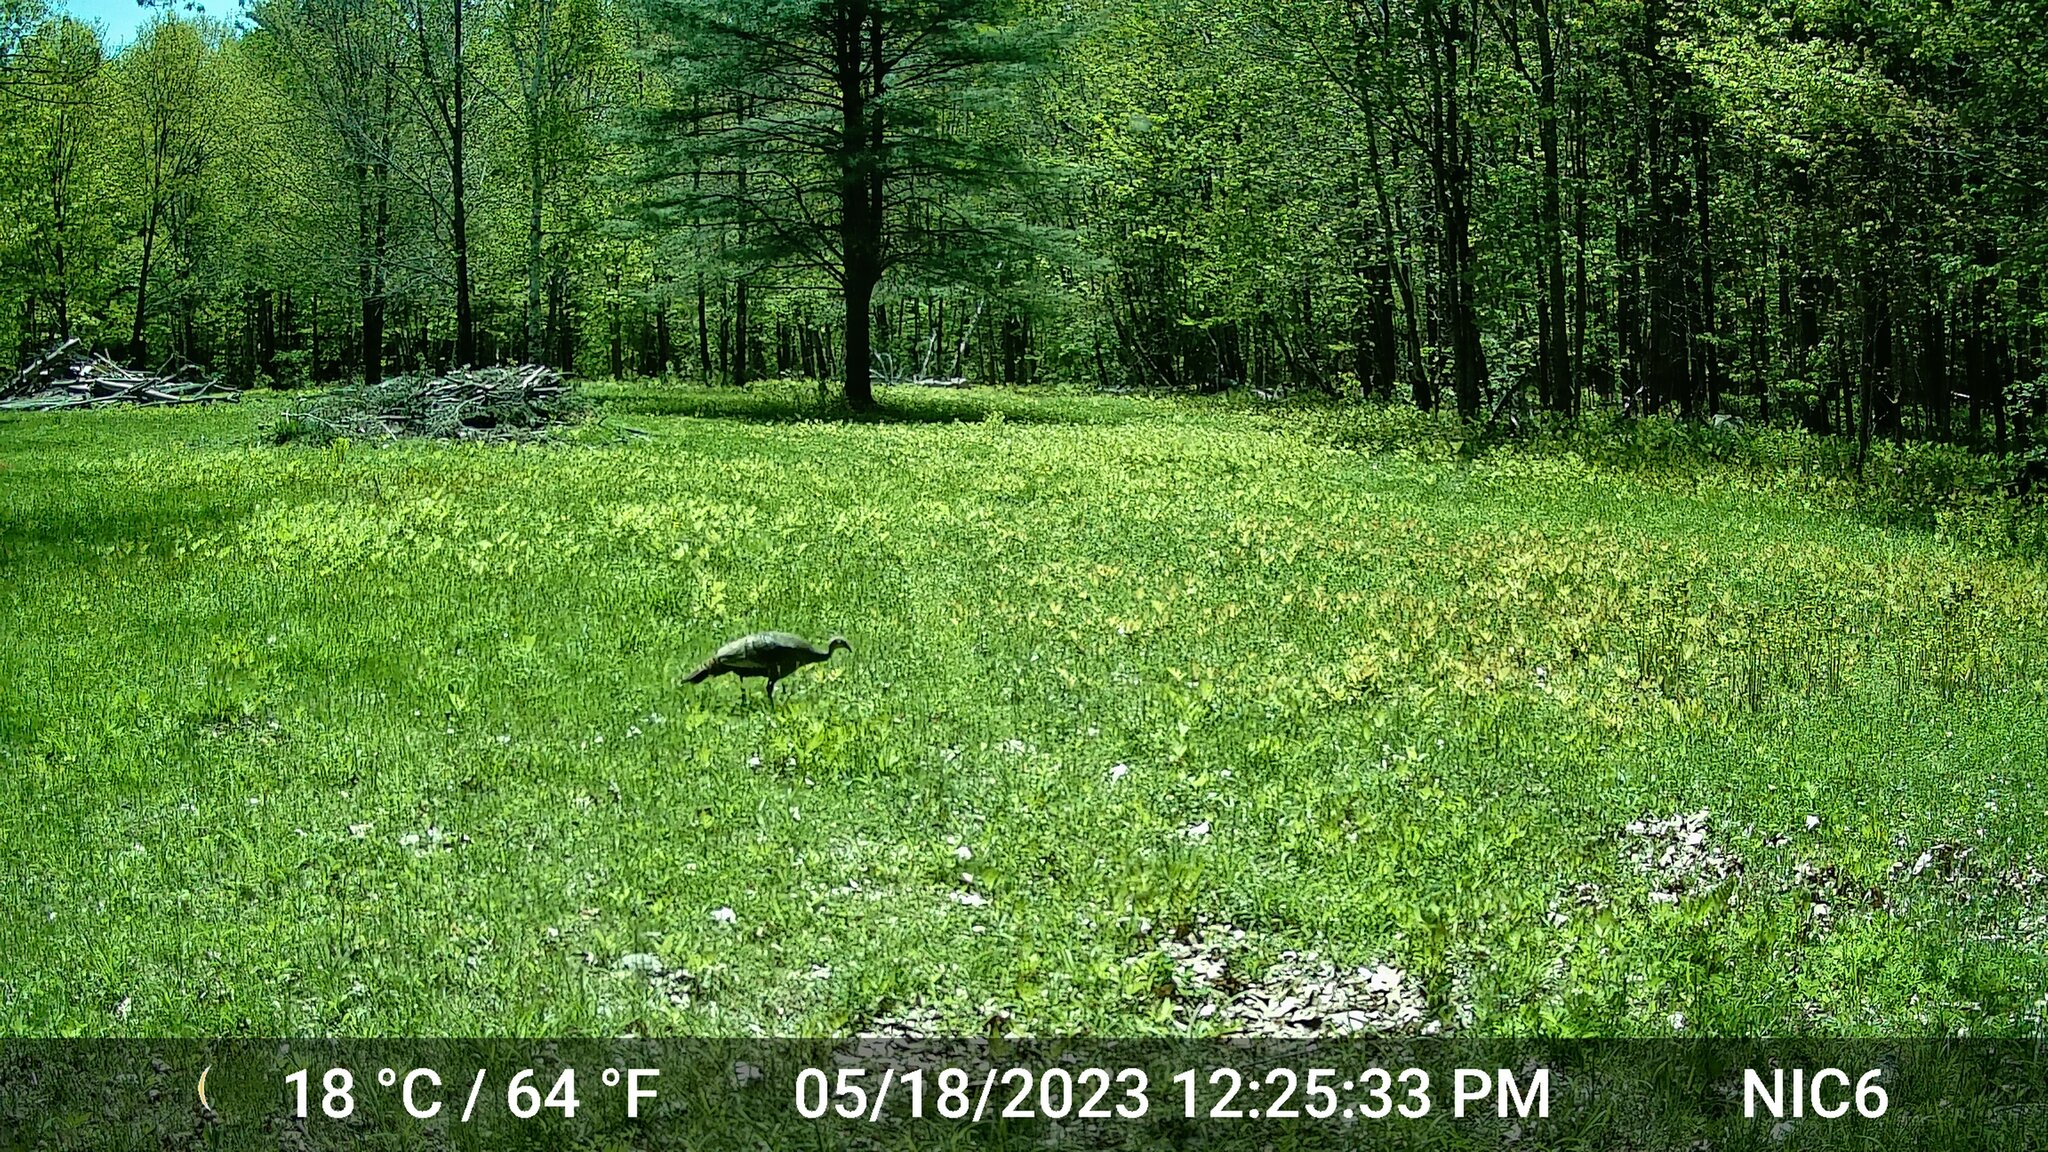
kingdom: Animalia
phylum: Chordata
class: Aves
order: Galliformes
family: Phasianidae
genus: Meleagris
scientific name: Meleagris gallopavo
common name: Wild turkey
